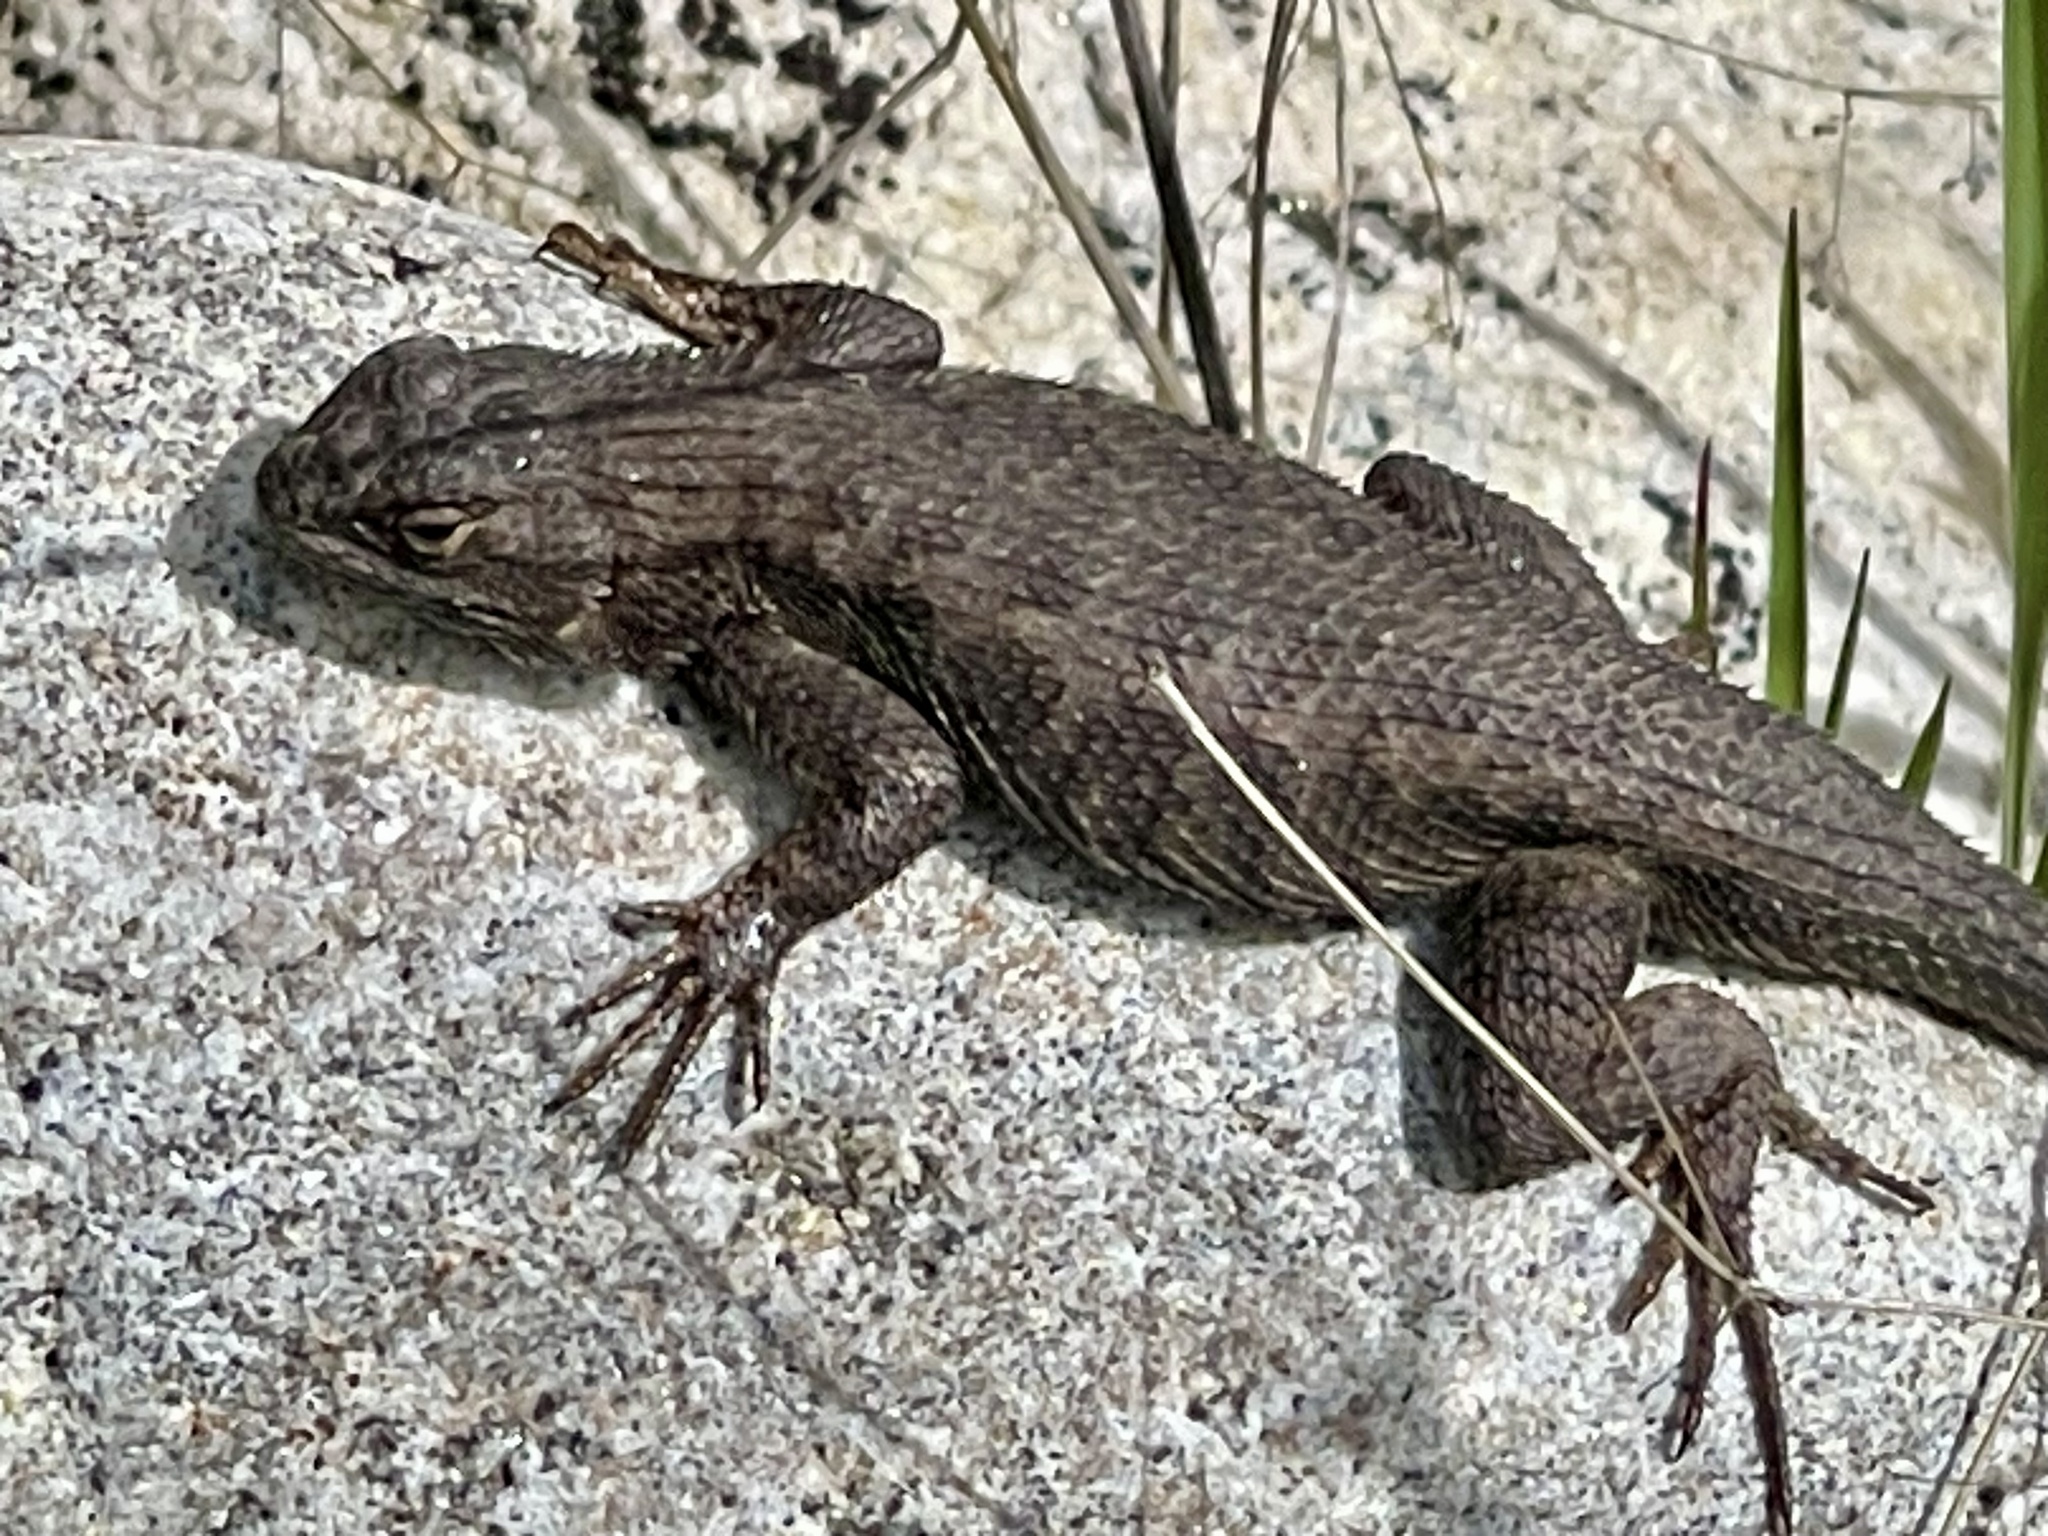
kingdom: Animalia
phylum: Chordata
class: Squamata
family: Phrynosomatidae
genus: Sceloporus
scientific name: Sceloporus occidentalis
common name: Western fence lizard
